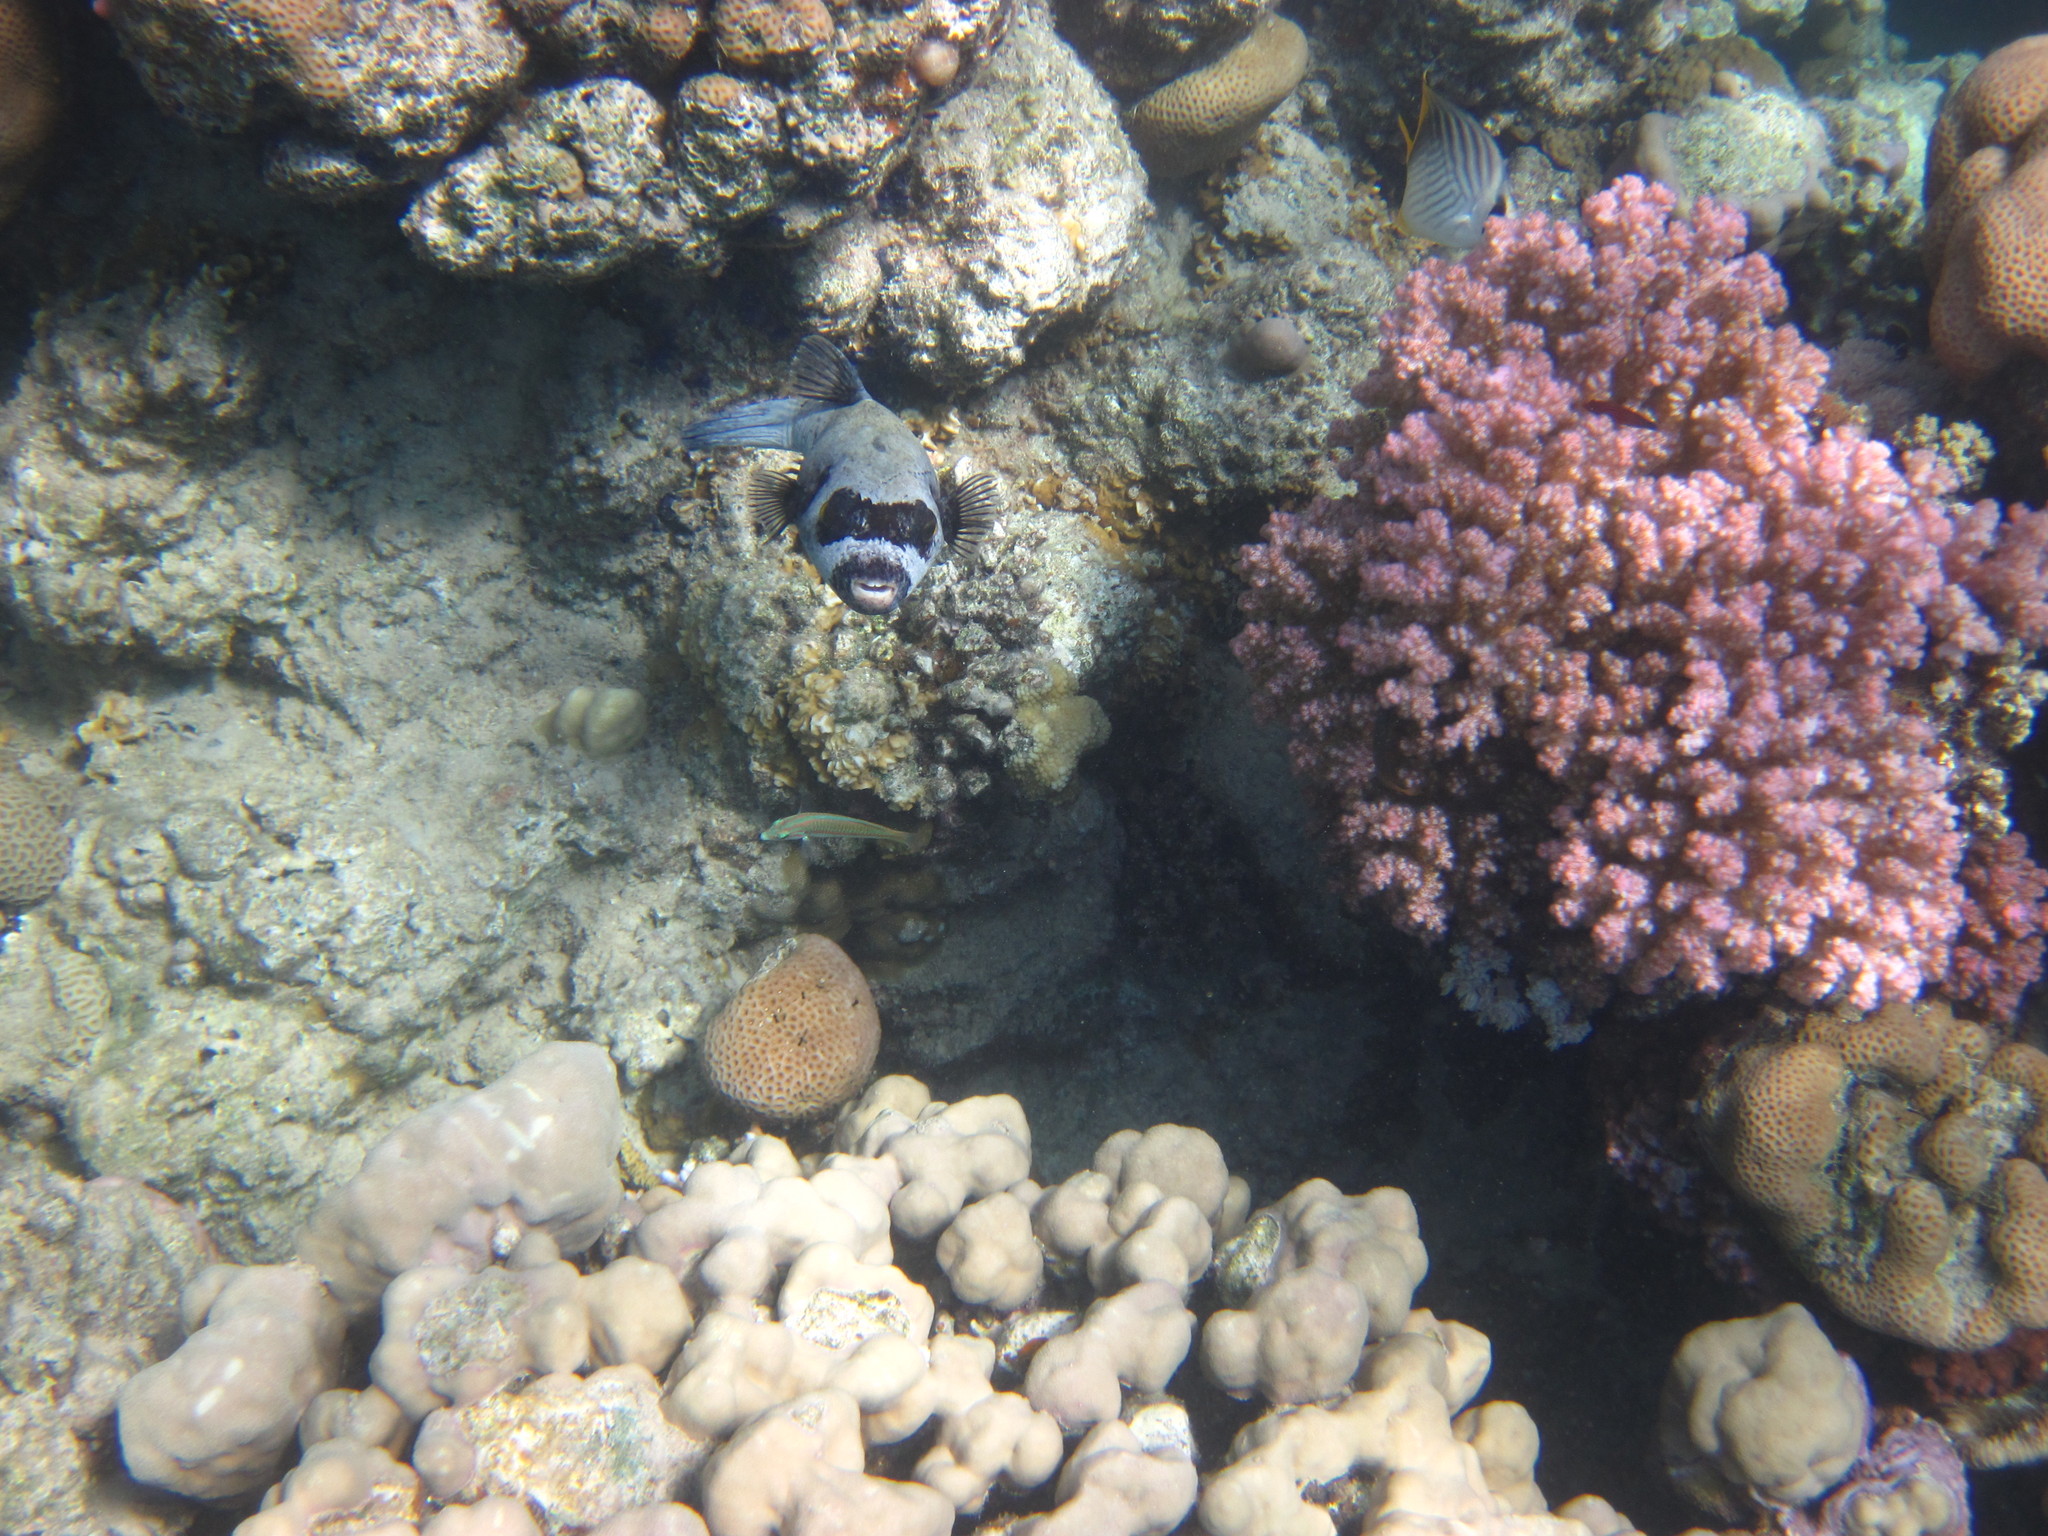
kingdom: Animalia
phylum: Chordata
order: Tetraodontiformes
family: Tetraodontidae
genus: Arothron
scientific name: Arothron diadematus
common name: Masked puffer
